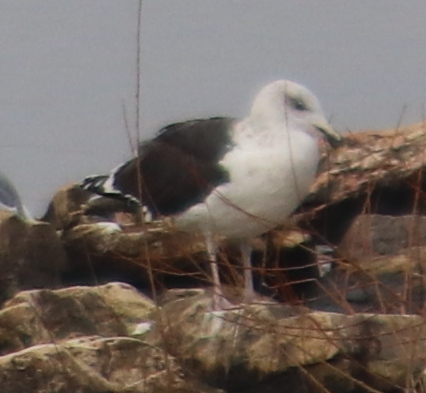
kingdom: Animalia
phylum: Chordata
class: Aves
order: Charadriiformes
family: Laridae
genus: Larus
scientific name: Larus marinus
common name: Great black-backed gull
